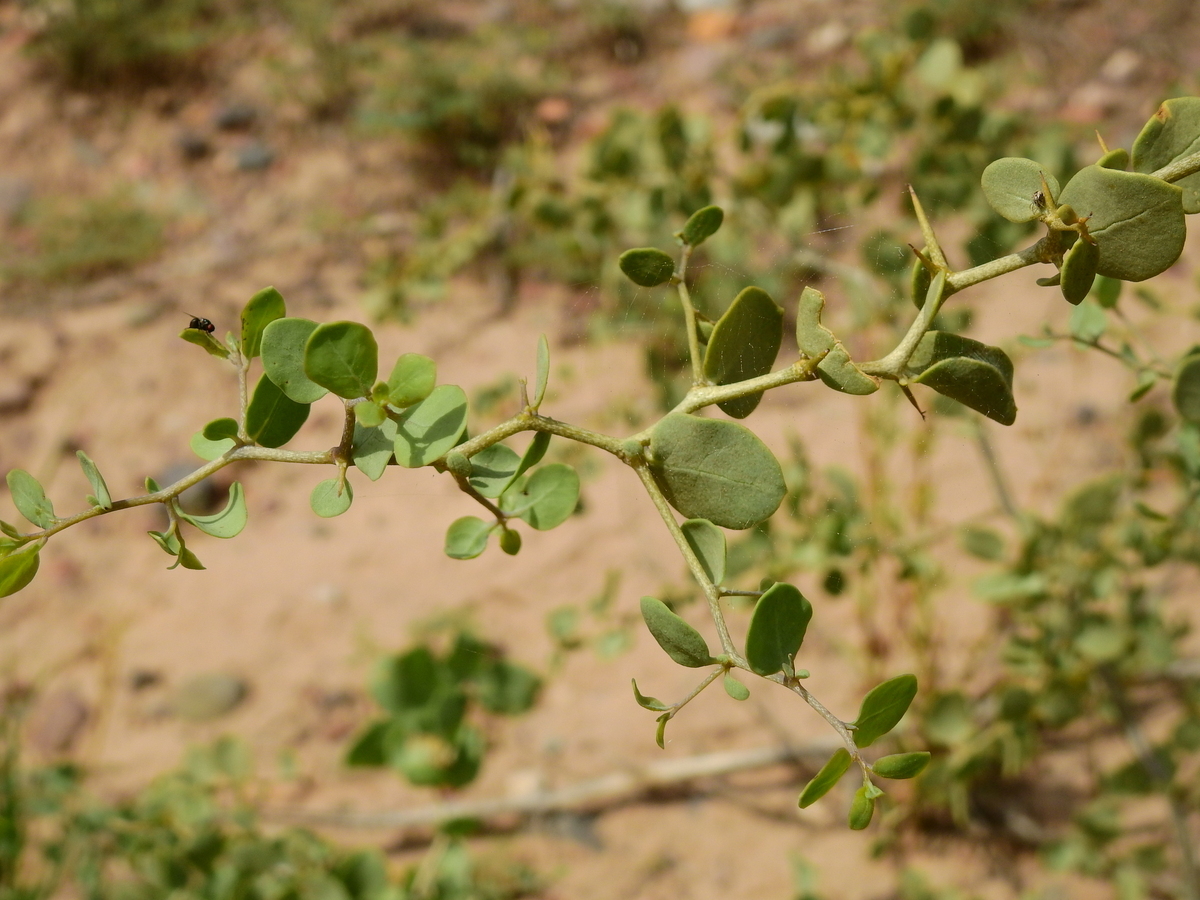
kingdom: Plantae
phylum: Tracheophyta
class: Magnoliopsida
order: Solanales
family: Solanaceae
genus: Lycium
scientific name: Lycium boerhaaviifolium
